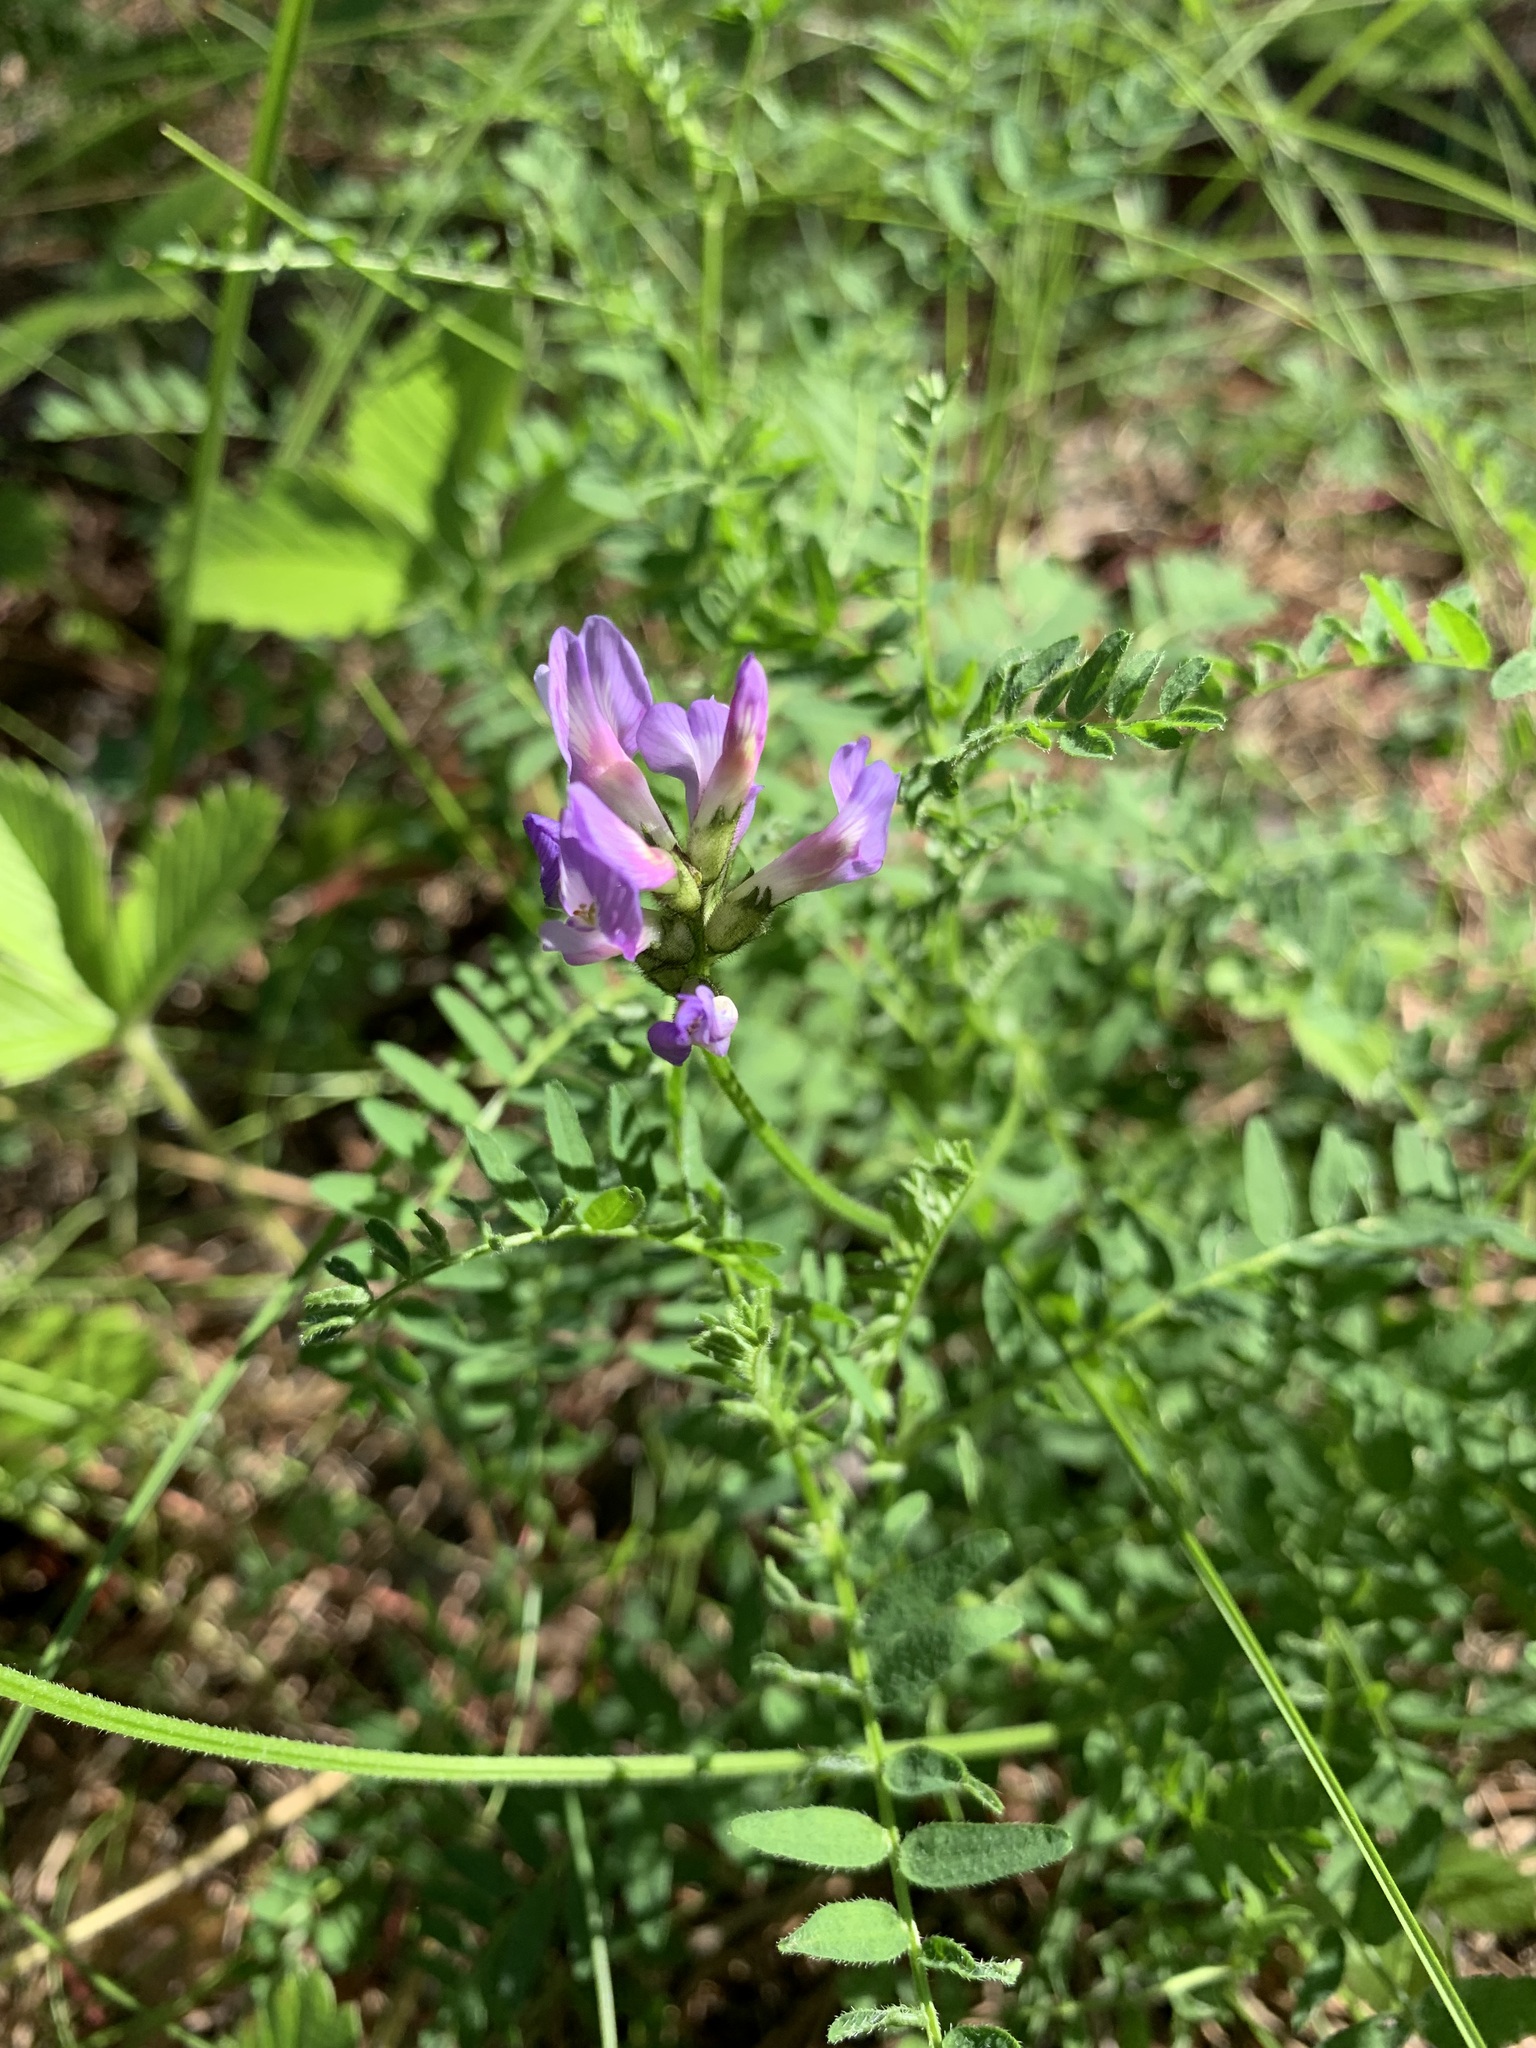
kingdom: Plantae
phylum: Tracheophyta
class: Magnoliopsida
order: Fabales
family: Fabaceae
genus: Astragalus
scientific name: Astragalus danicus
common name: Purple milk-vetch
